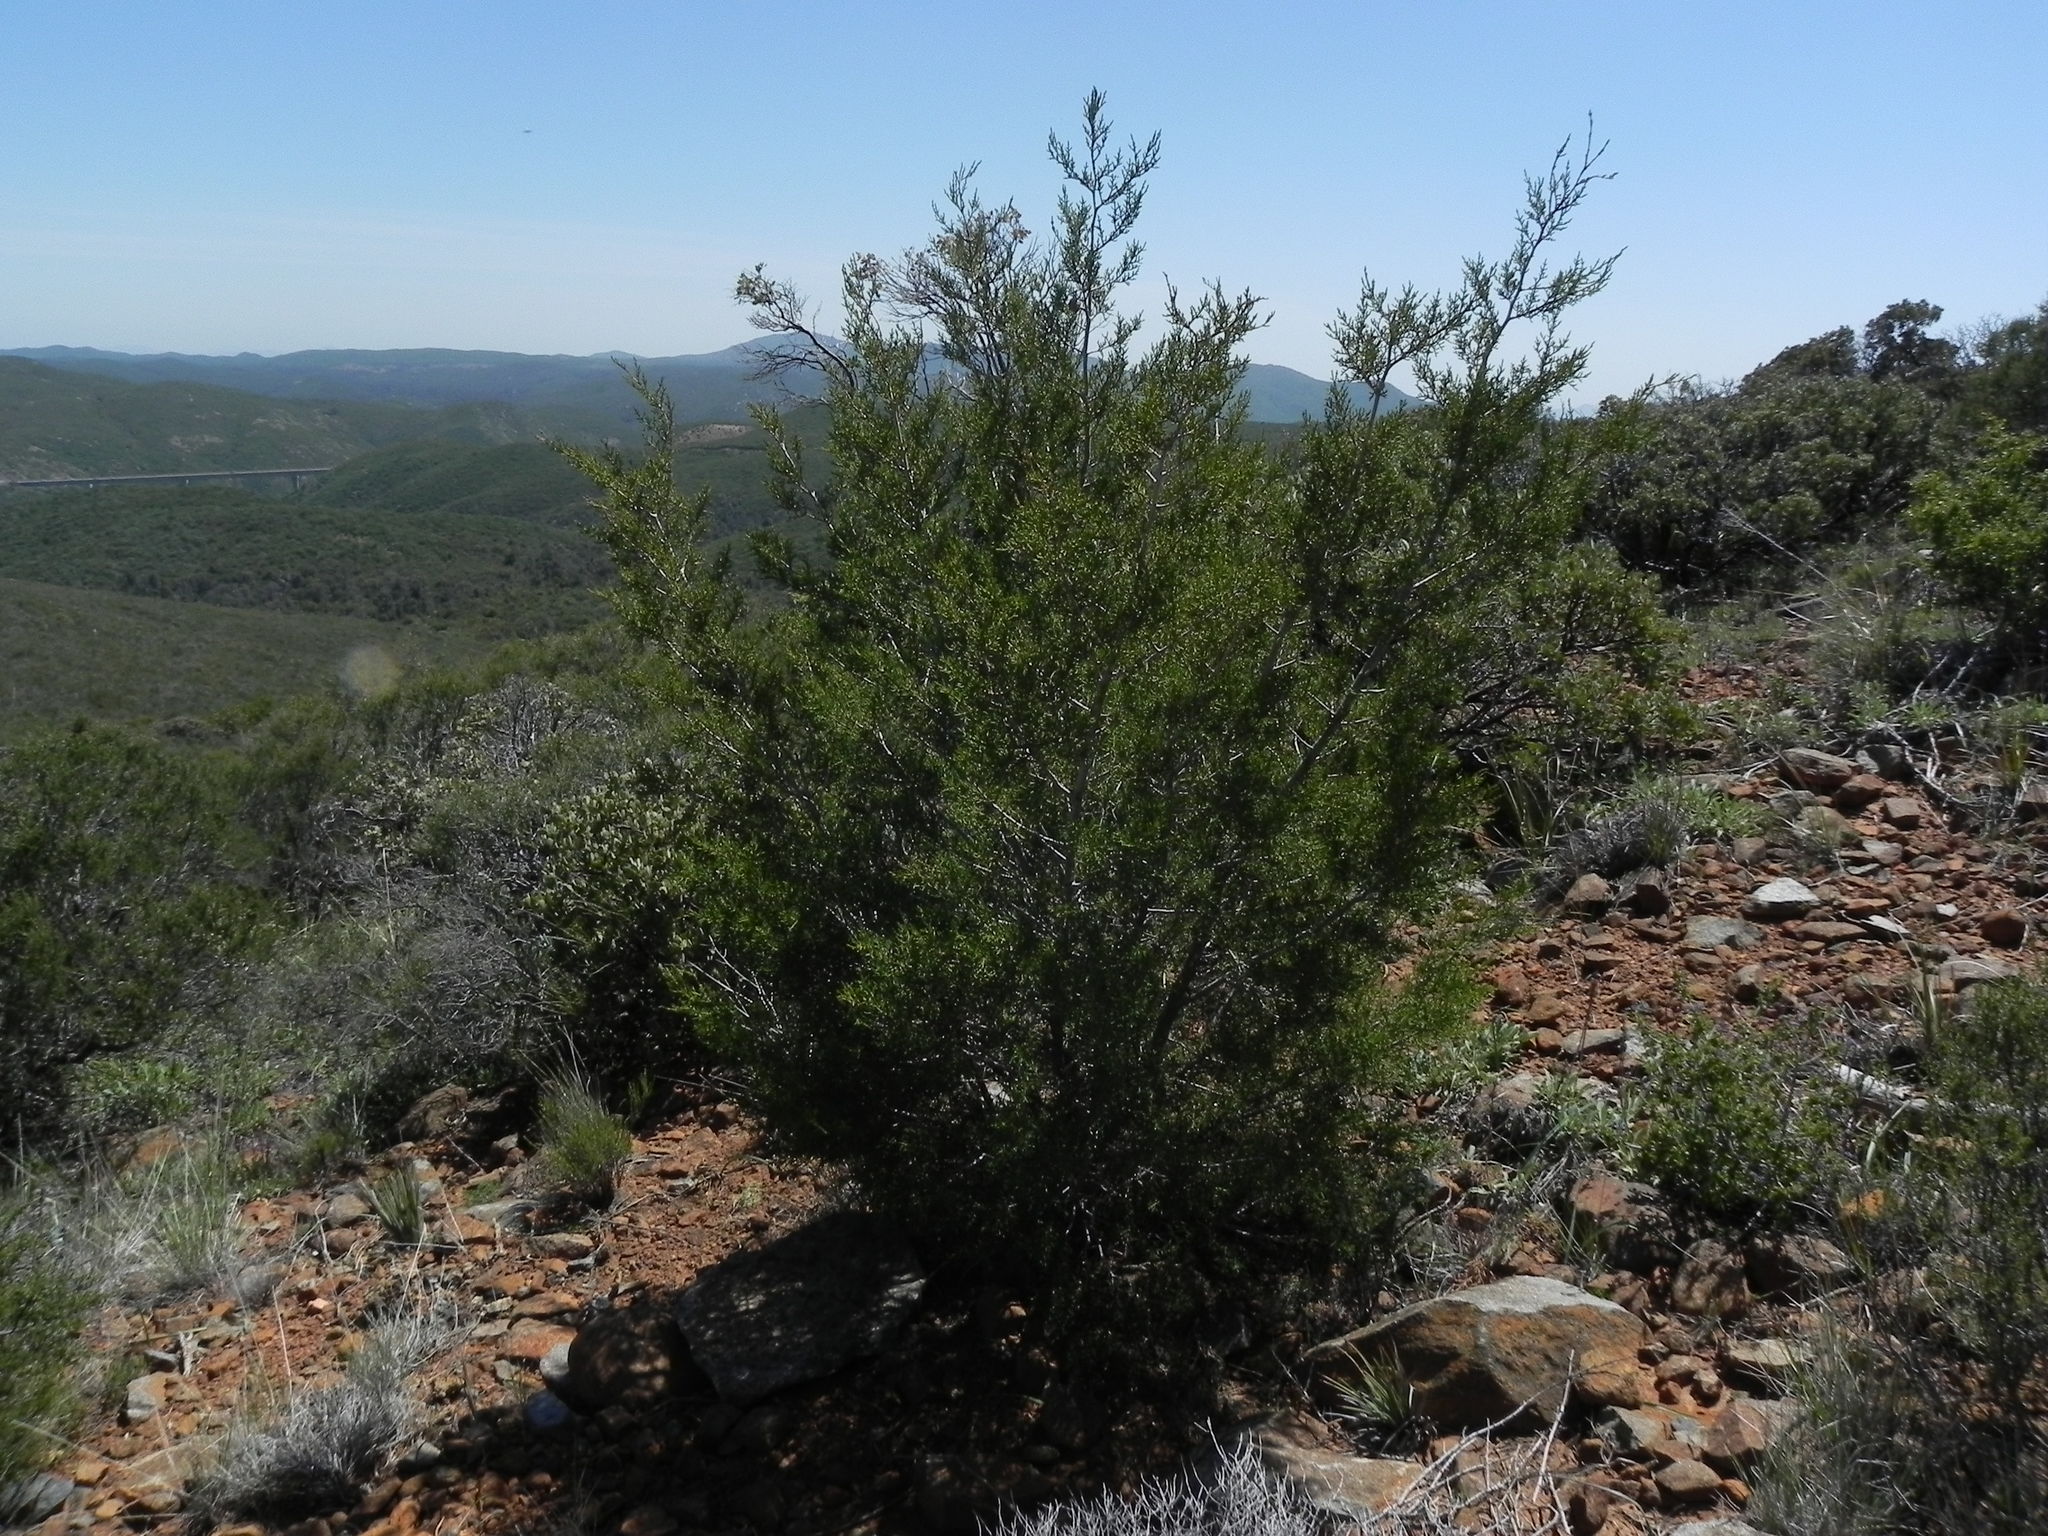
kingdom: Plantae
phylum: Tracheophyta
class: Pinopsida
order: Pinales
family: Cupressaceae
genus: Cupressus
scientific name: Cupressus guadalupensis
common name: Forbes cypress
